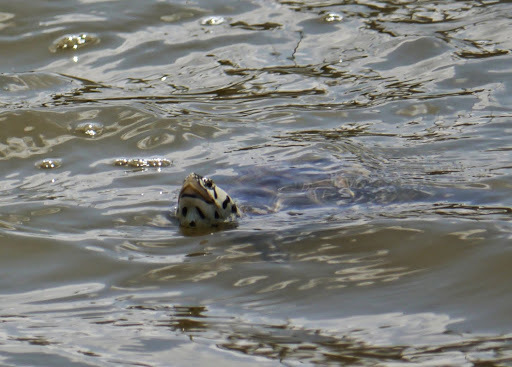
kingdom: Animalia
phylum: Chordata
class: Testudines
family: Emydidae
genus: Malaclemys
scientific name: Malaclemys terrapin
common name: Diamondback terrapin
